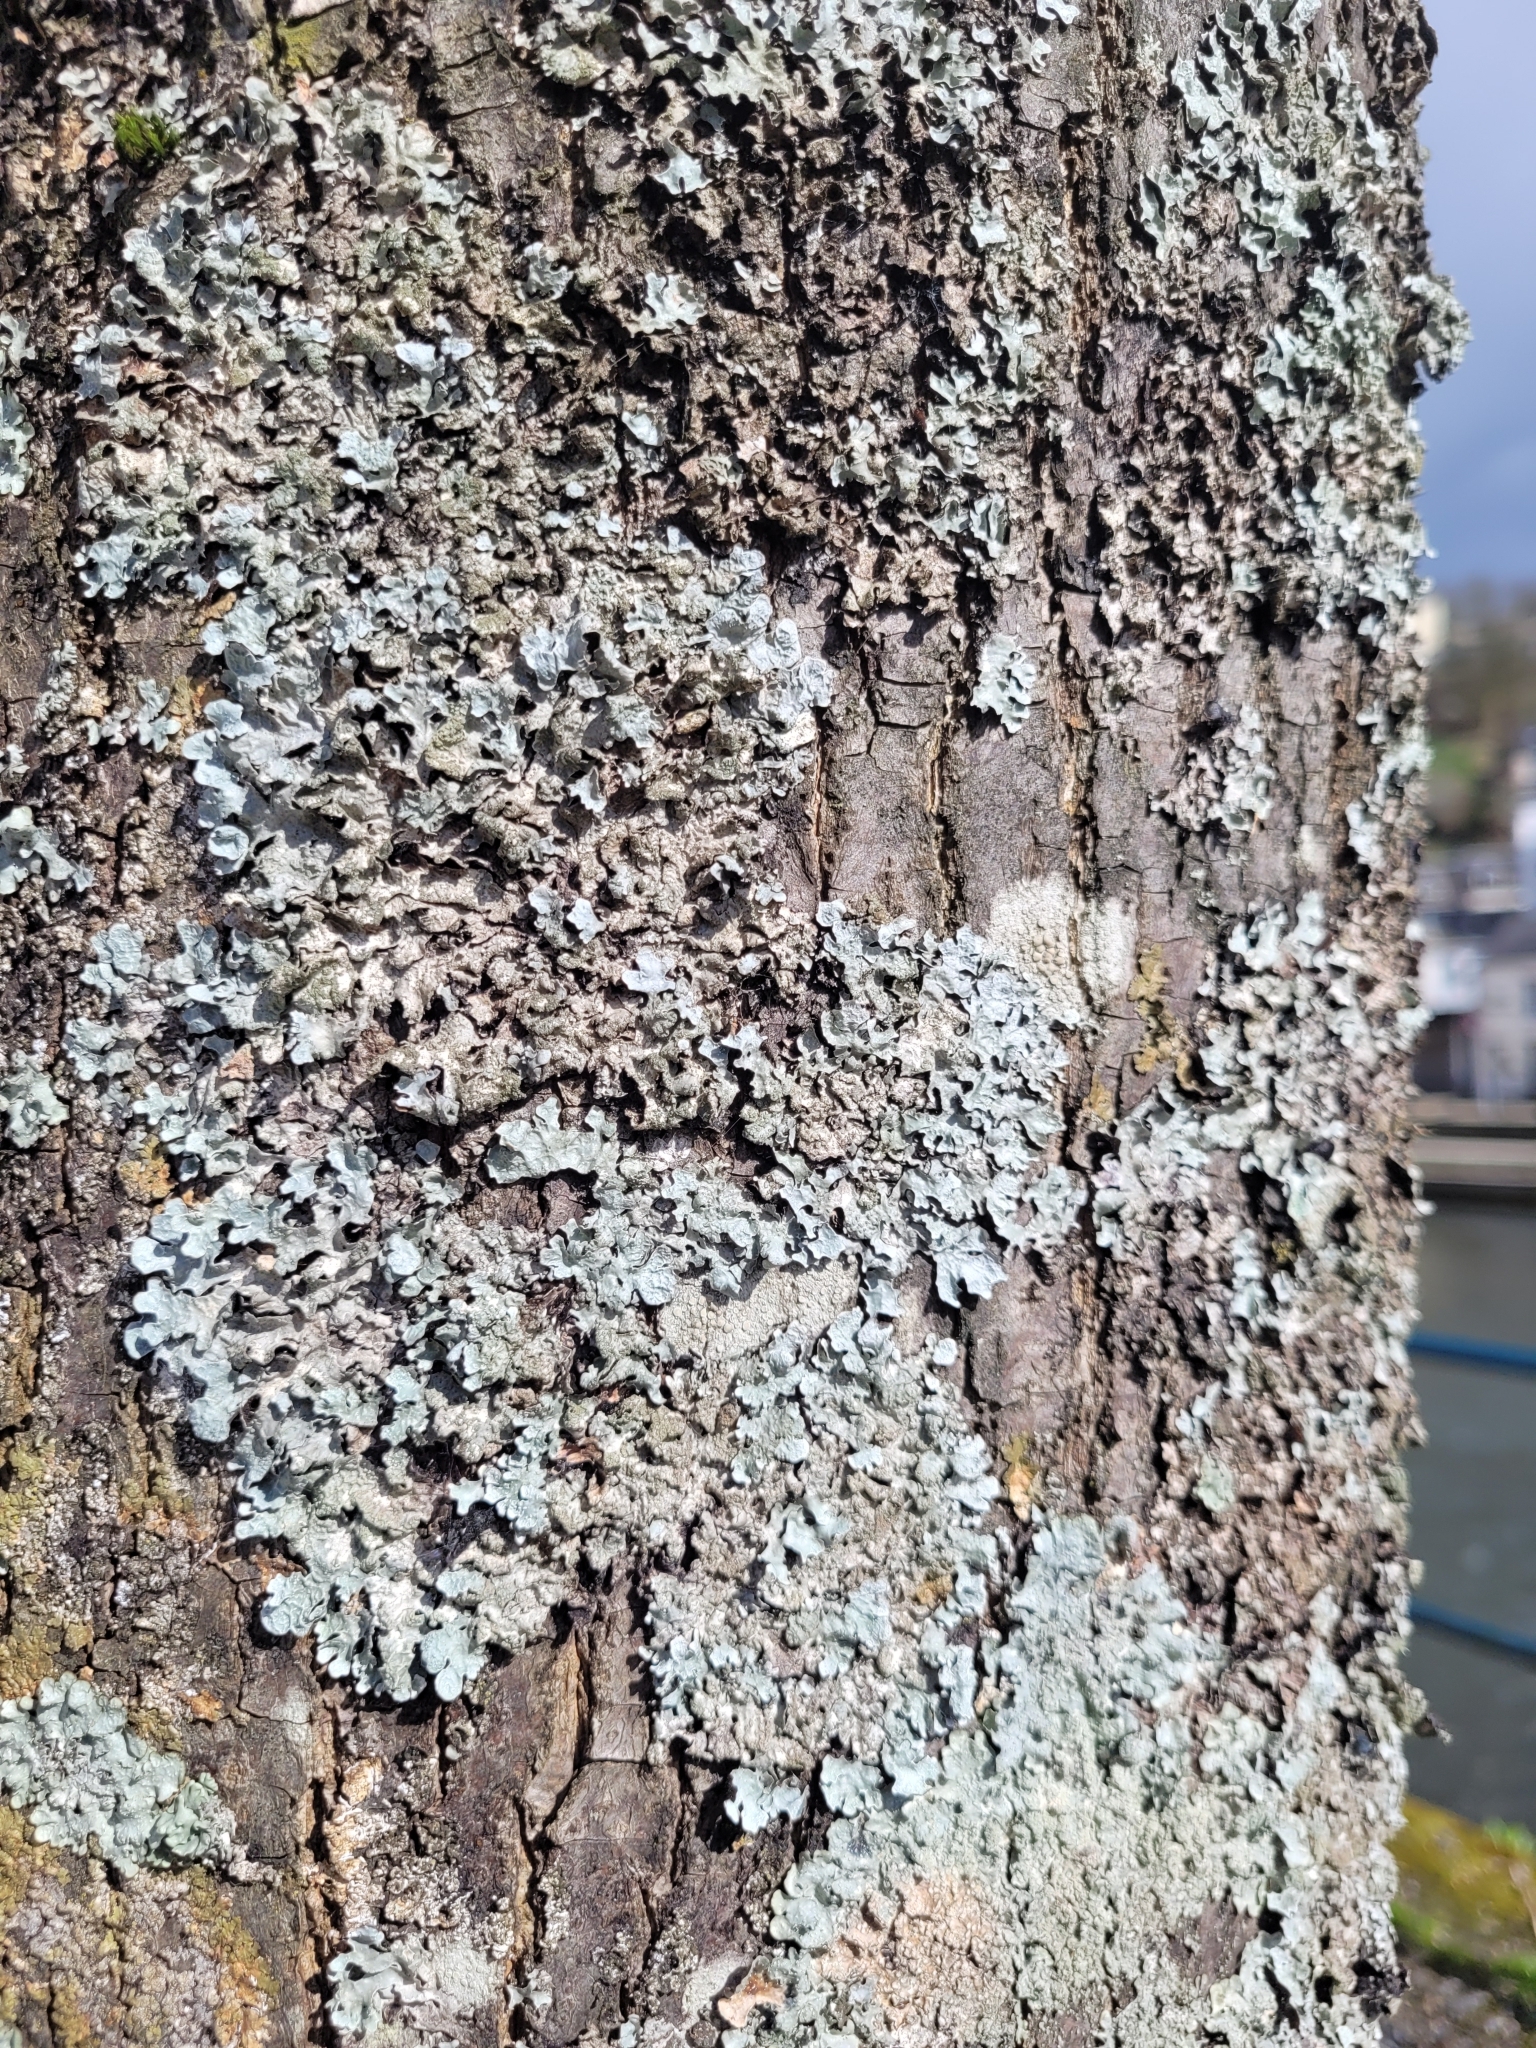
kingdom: Fungi
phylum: Ascomycota
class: Lecanoromycetes
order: Lecanorales
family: Parmeliaceae
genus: Parmelia
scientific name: Parmelia sulcata
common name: Netted shield lichen
